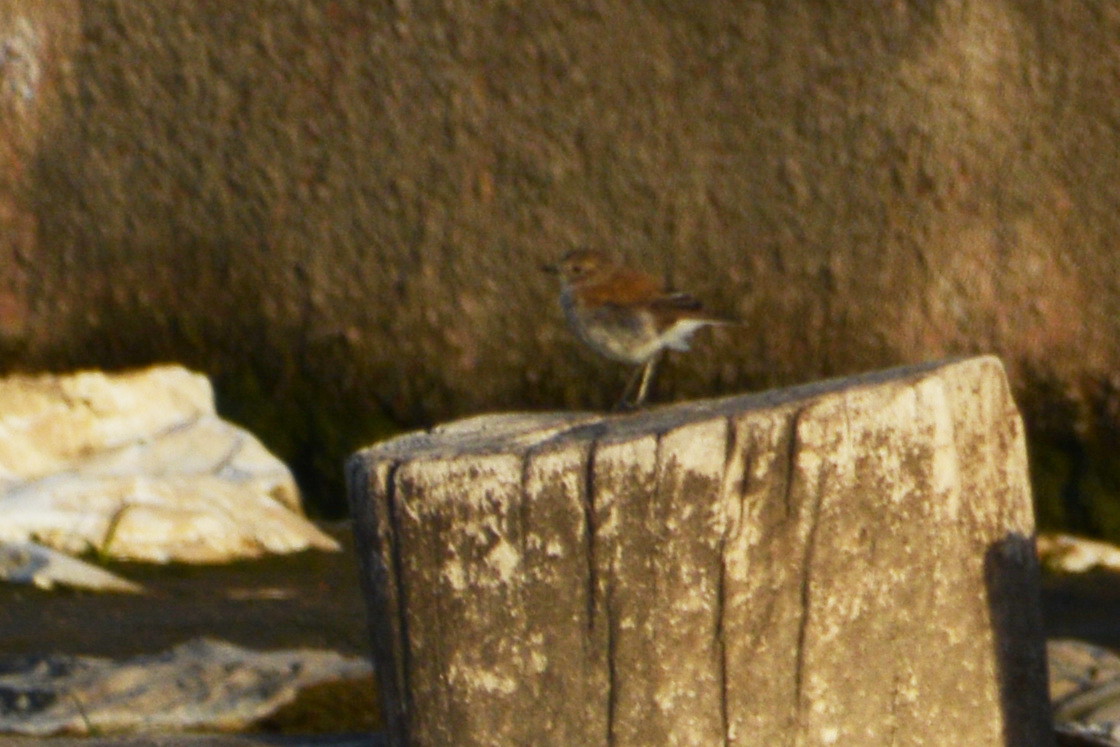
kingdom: Animalia
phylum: Chordata
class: Aves
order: Passeriformes
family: Tyrannidae
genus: Lessonia
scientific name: Lessonia rufa
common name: Austral negrito
